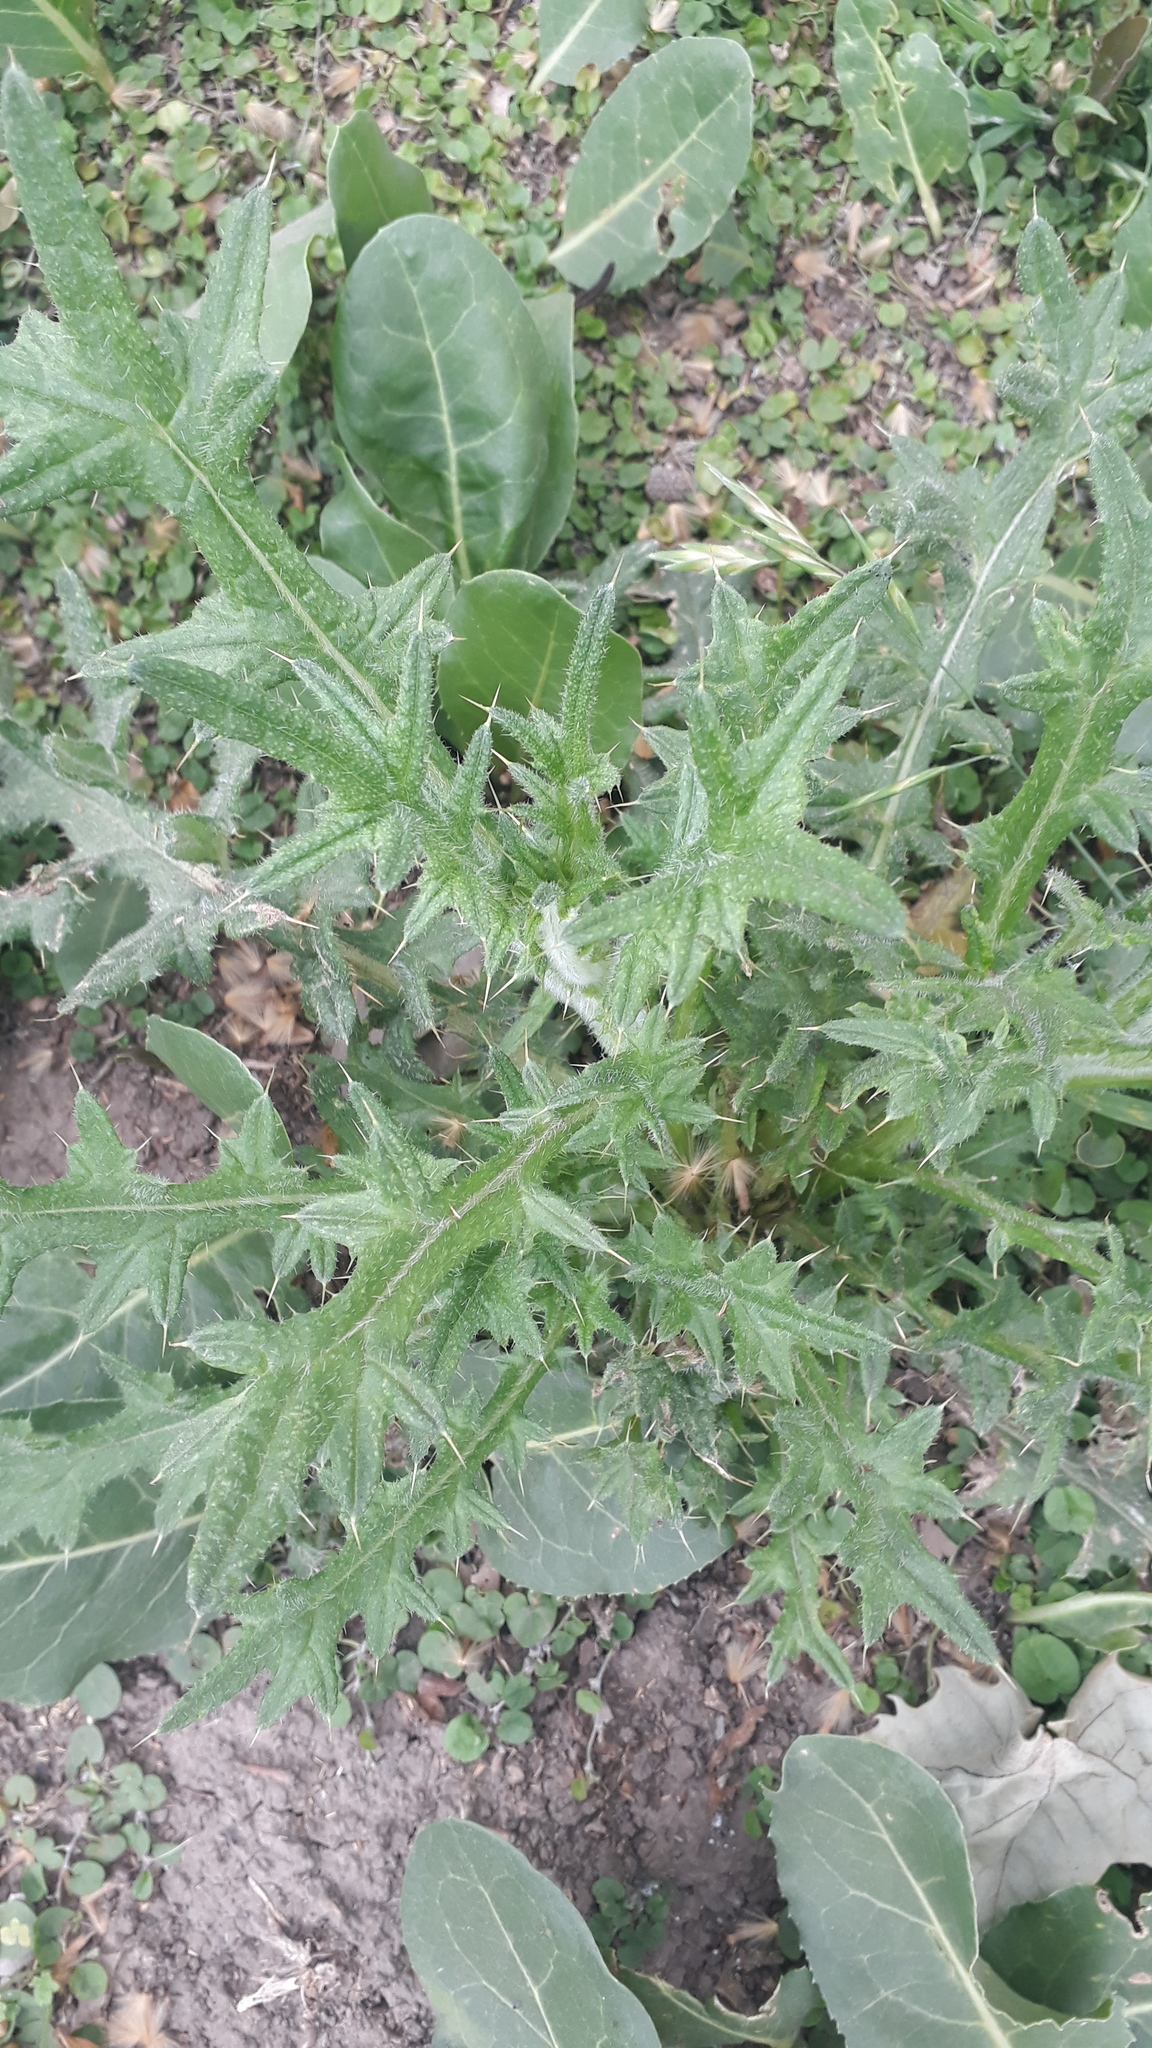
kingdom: Plantae
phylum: Tracheophyta
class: Magnoliopsida
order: Asterales
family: Asteraceae
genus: Cirsium
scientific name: Cirsium vulgare
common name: Bull thistle
